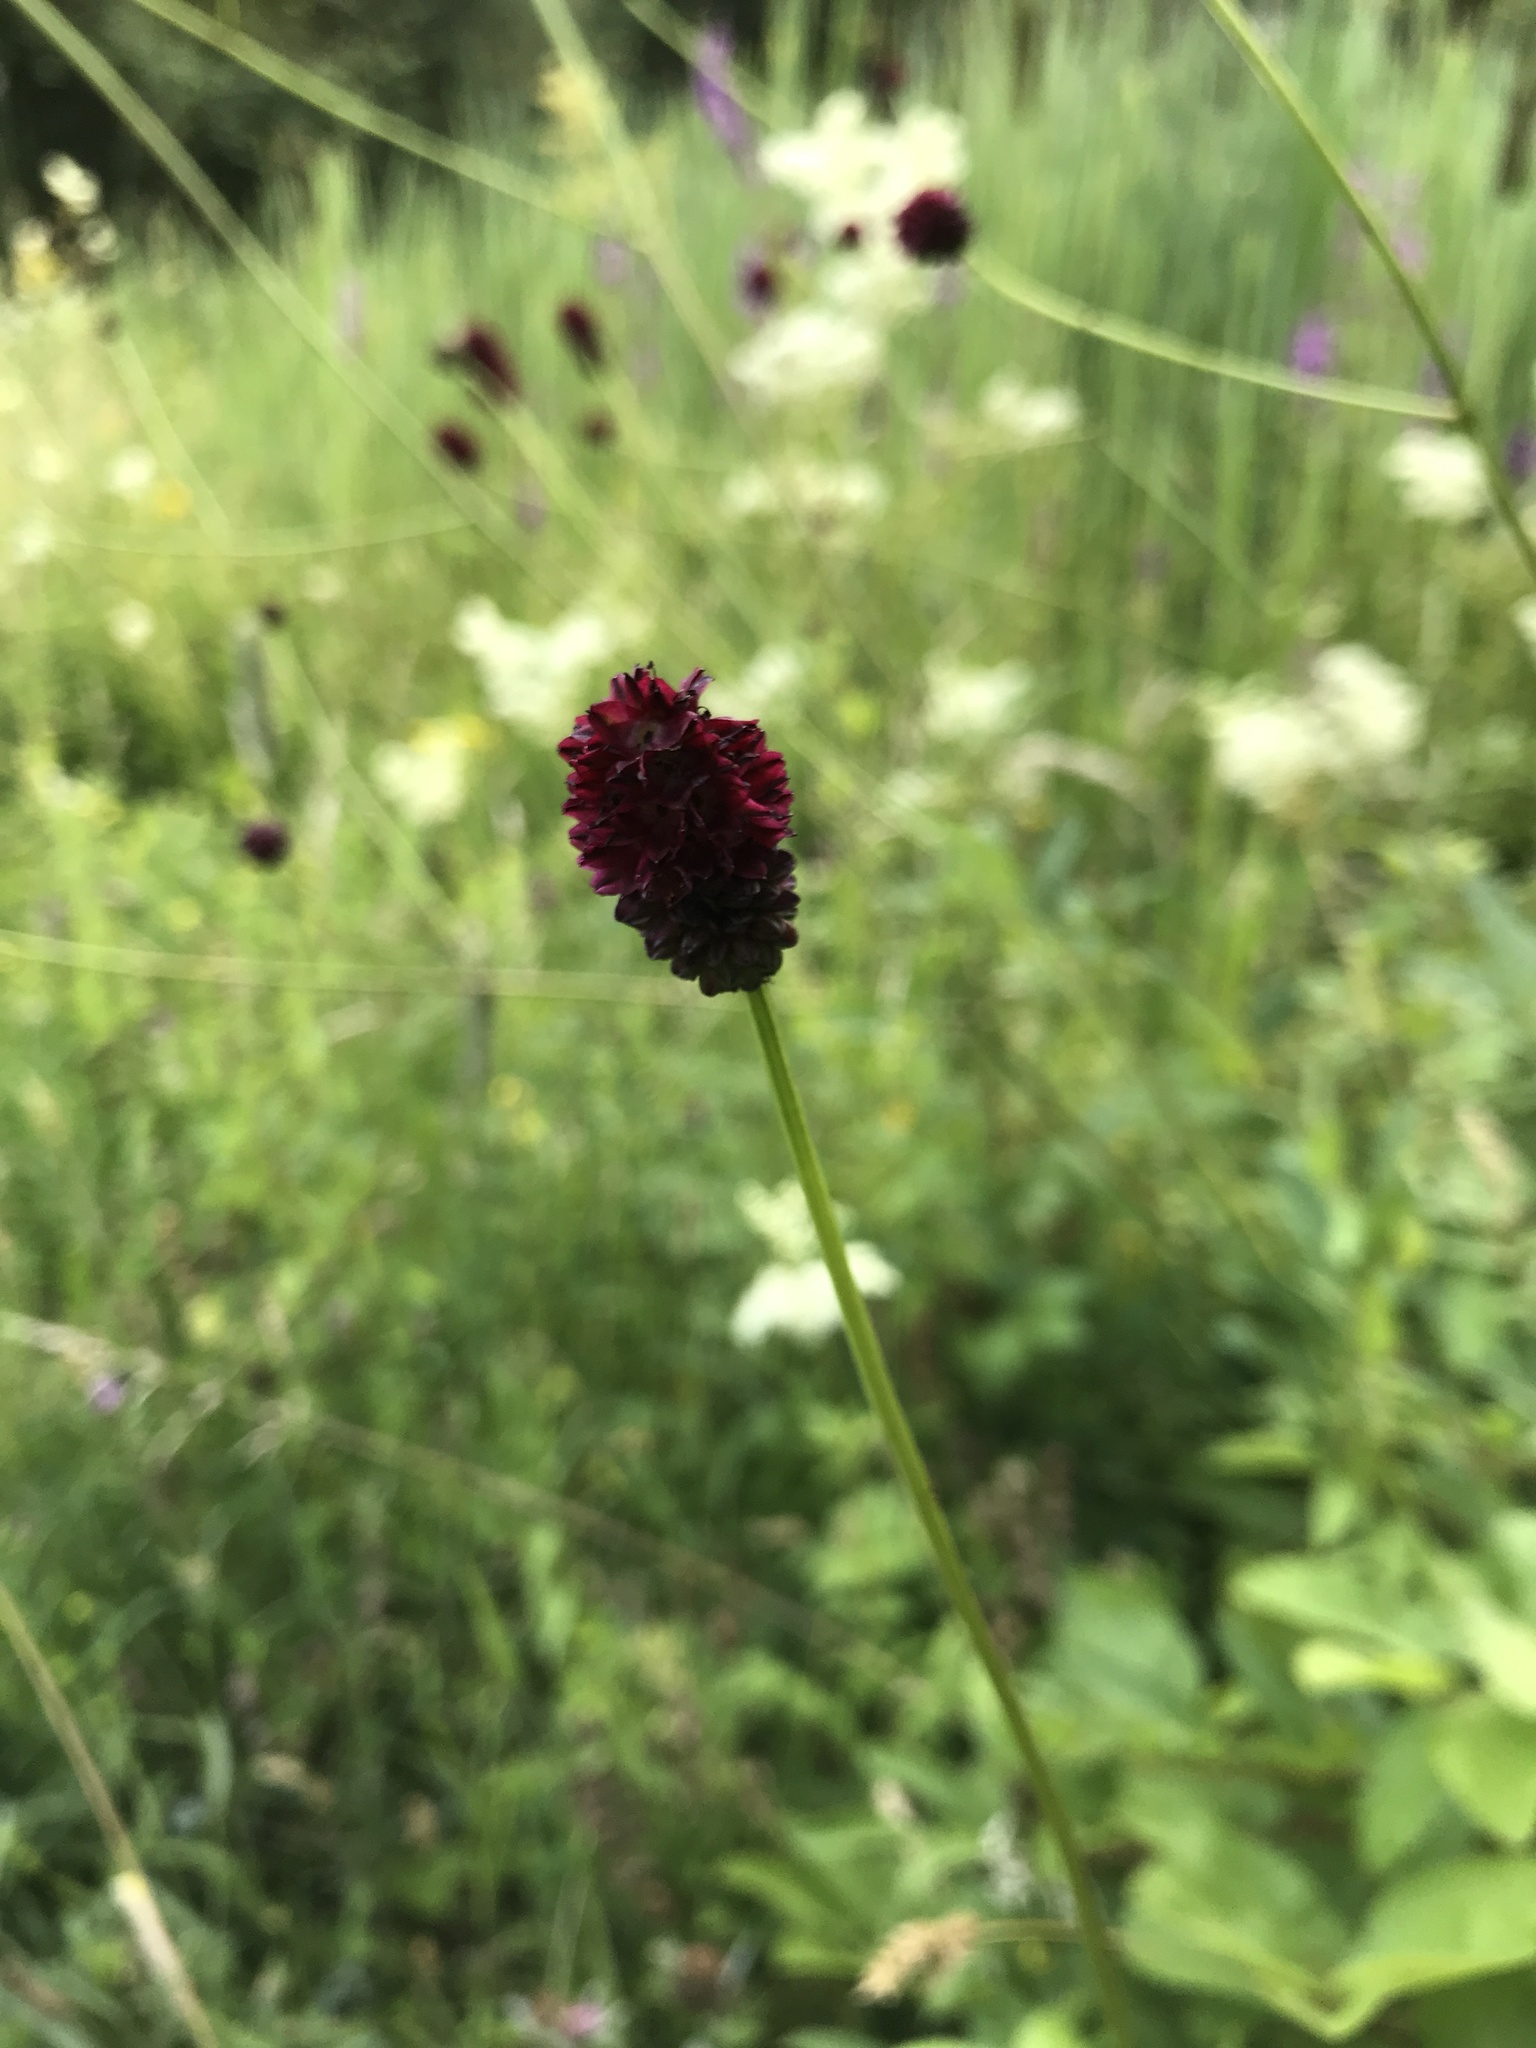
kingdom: Plantae
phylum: Tracheophyta
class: Magnoliopsida
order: Rosales
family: Rosaceae
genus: Sanguisorba
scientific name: Sanguisorba officinalis
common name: Great burnet
